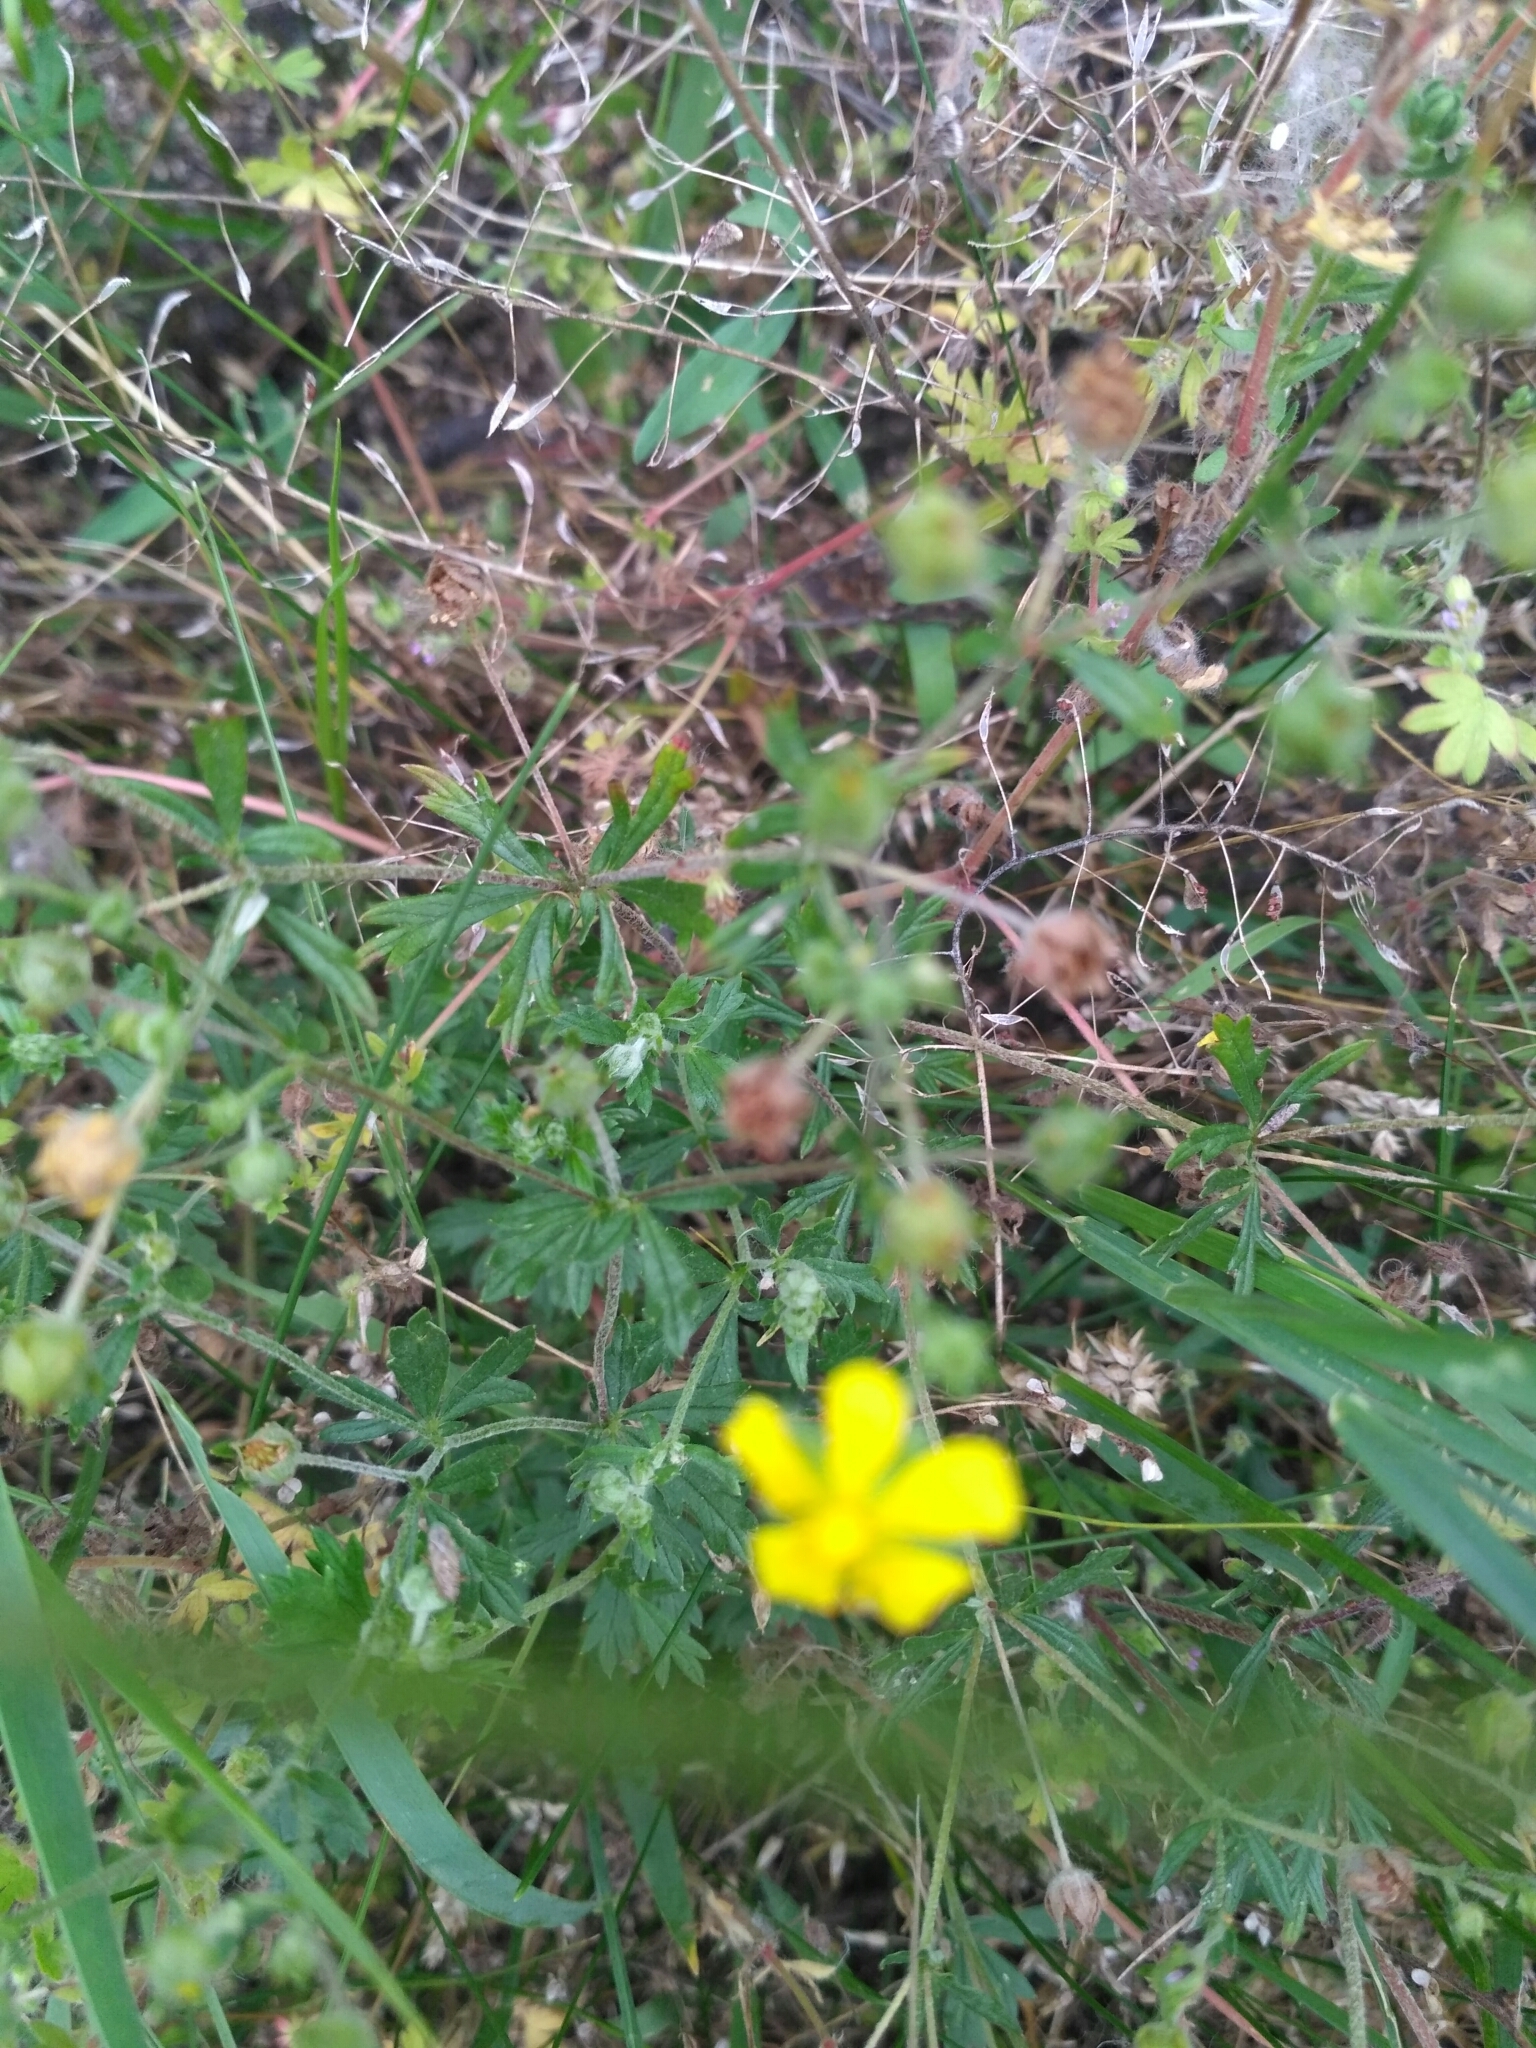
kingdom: Plantae
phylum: Tracheophyta
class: Magnoliopsida
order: Rosales
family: Rosaceae
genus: Potentilla
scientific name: Potentilla argentea
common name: Hoary cinquefoil
